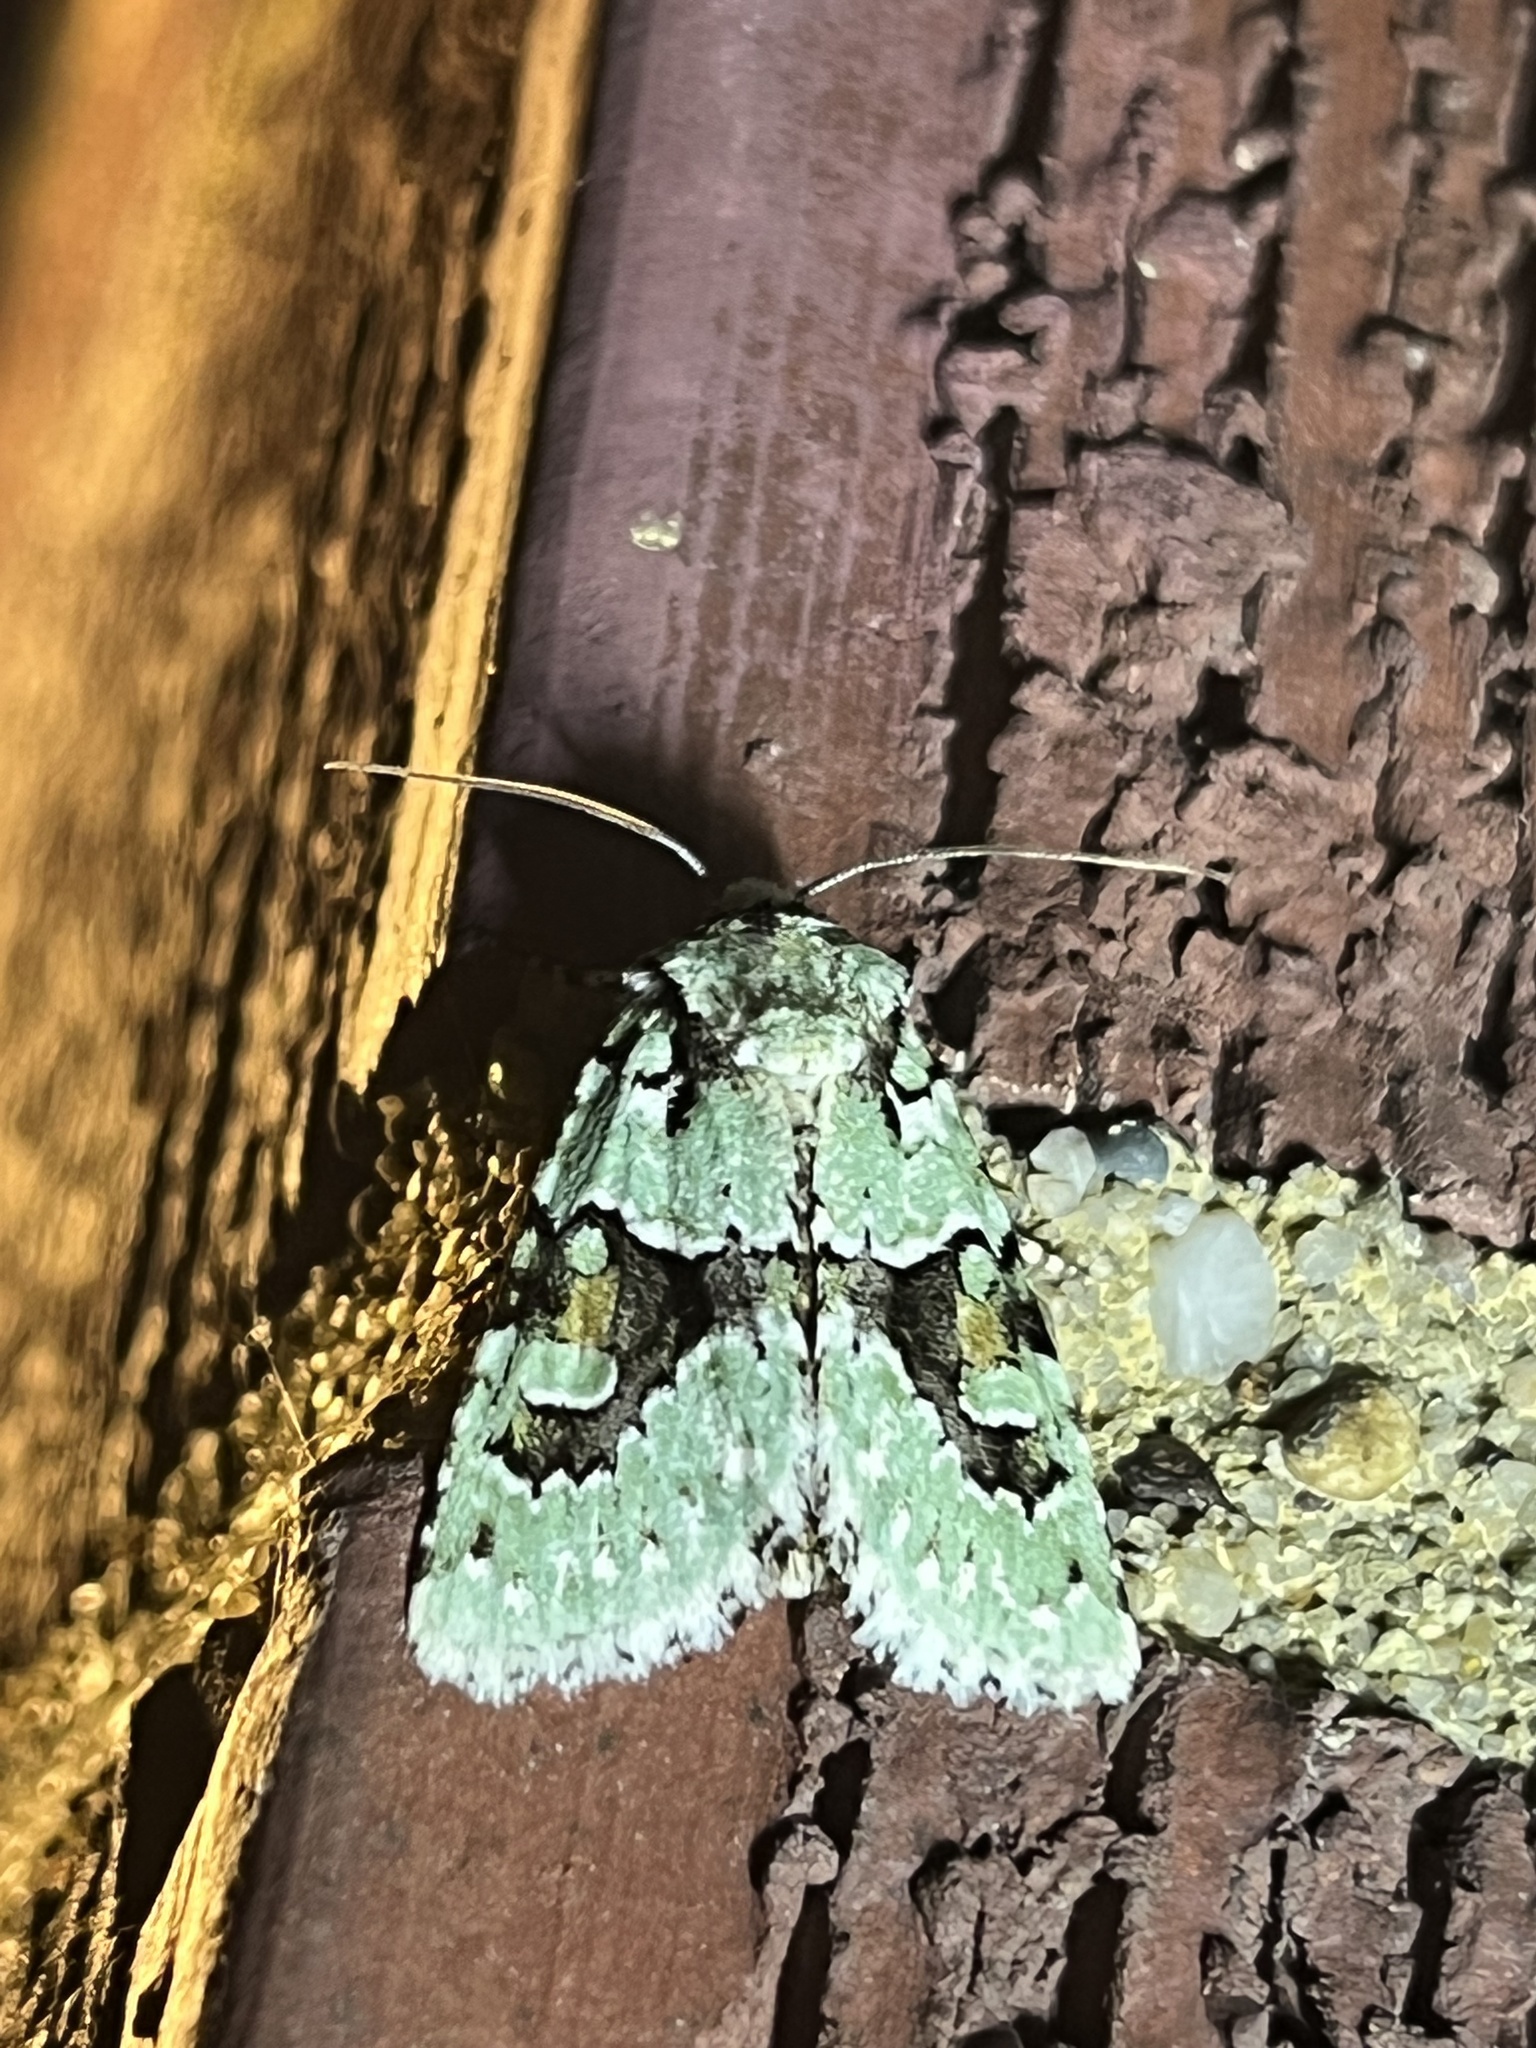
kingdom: Animalia
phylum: Arthropoda
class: Insecta
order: Lepidoptera
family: Noctuidae
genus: Lacinipolia
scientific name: Lacinipolia implicata
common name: Implicit arches
